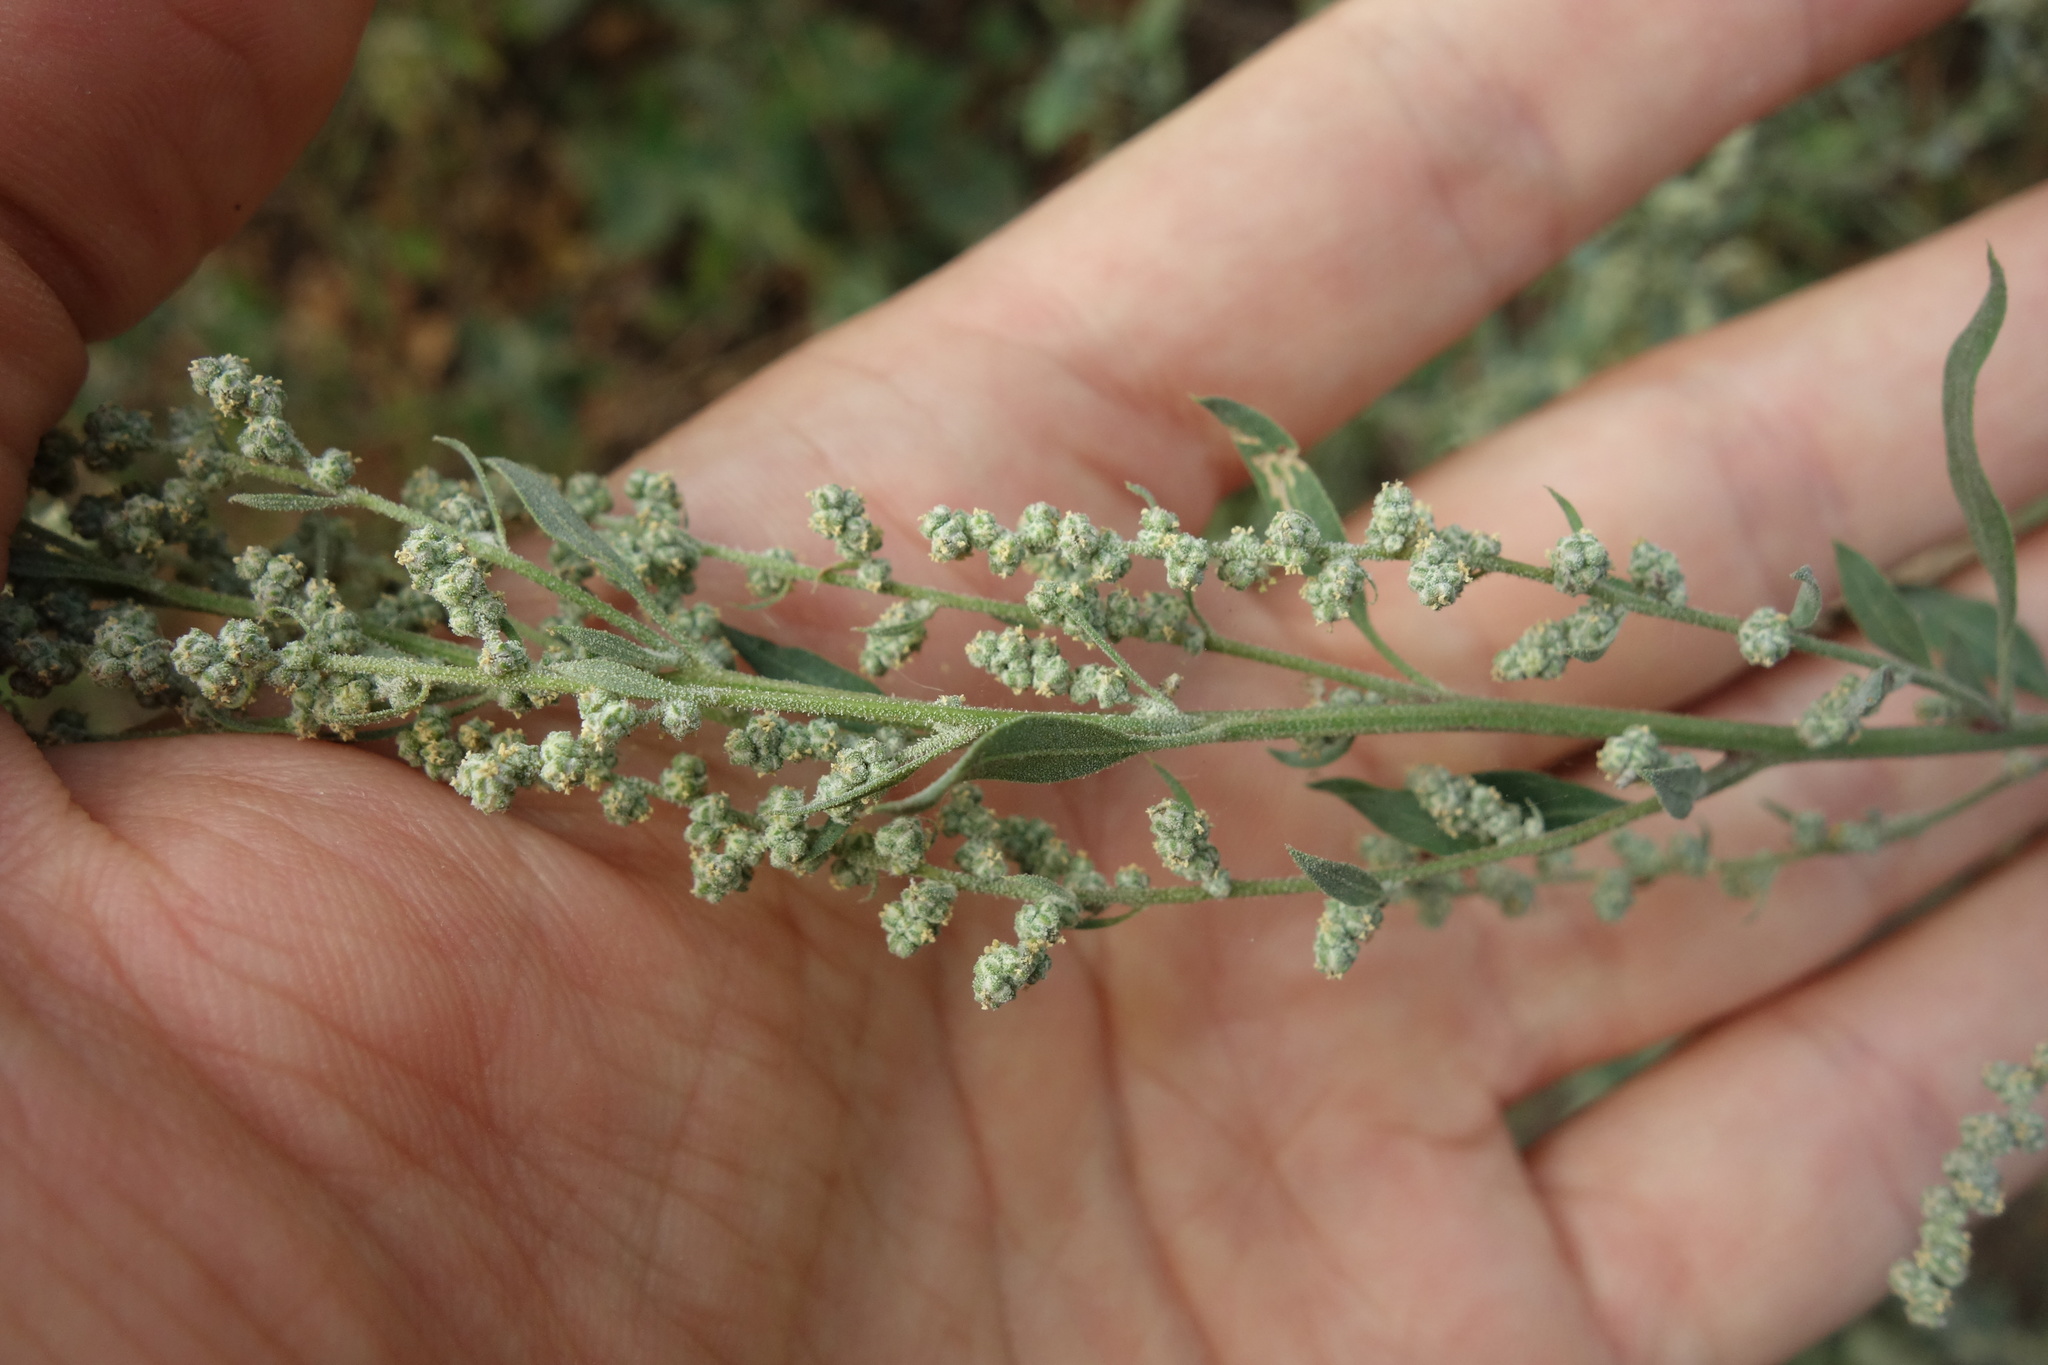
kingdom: Plantae
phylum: Tracheophyta
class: Magnoliopsida
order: Caryophyllales
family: Amaranthaceae
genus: Chenopodium
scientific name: Chenopodium album
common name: Fat-hen
